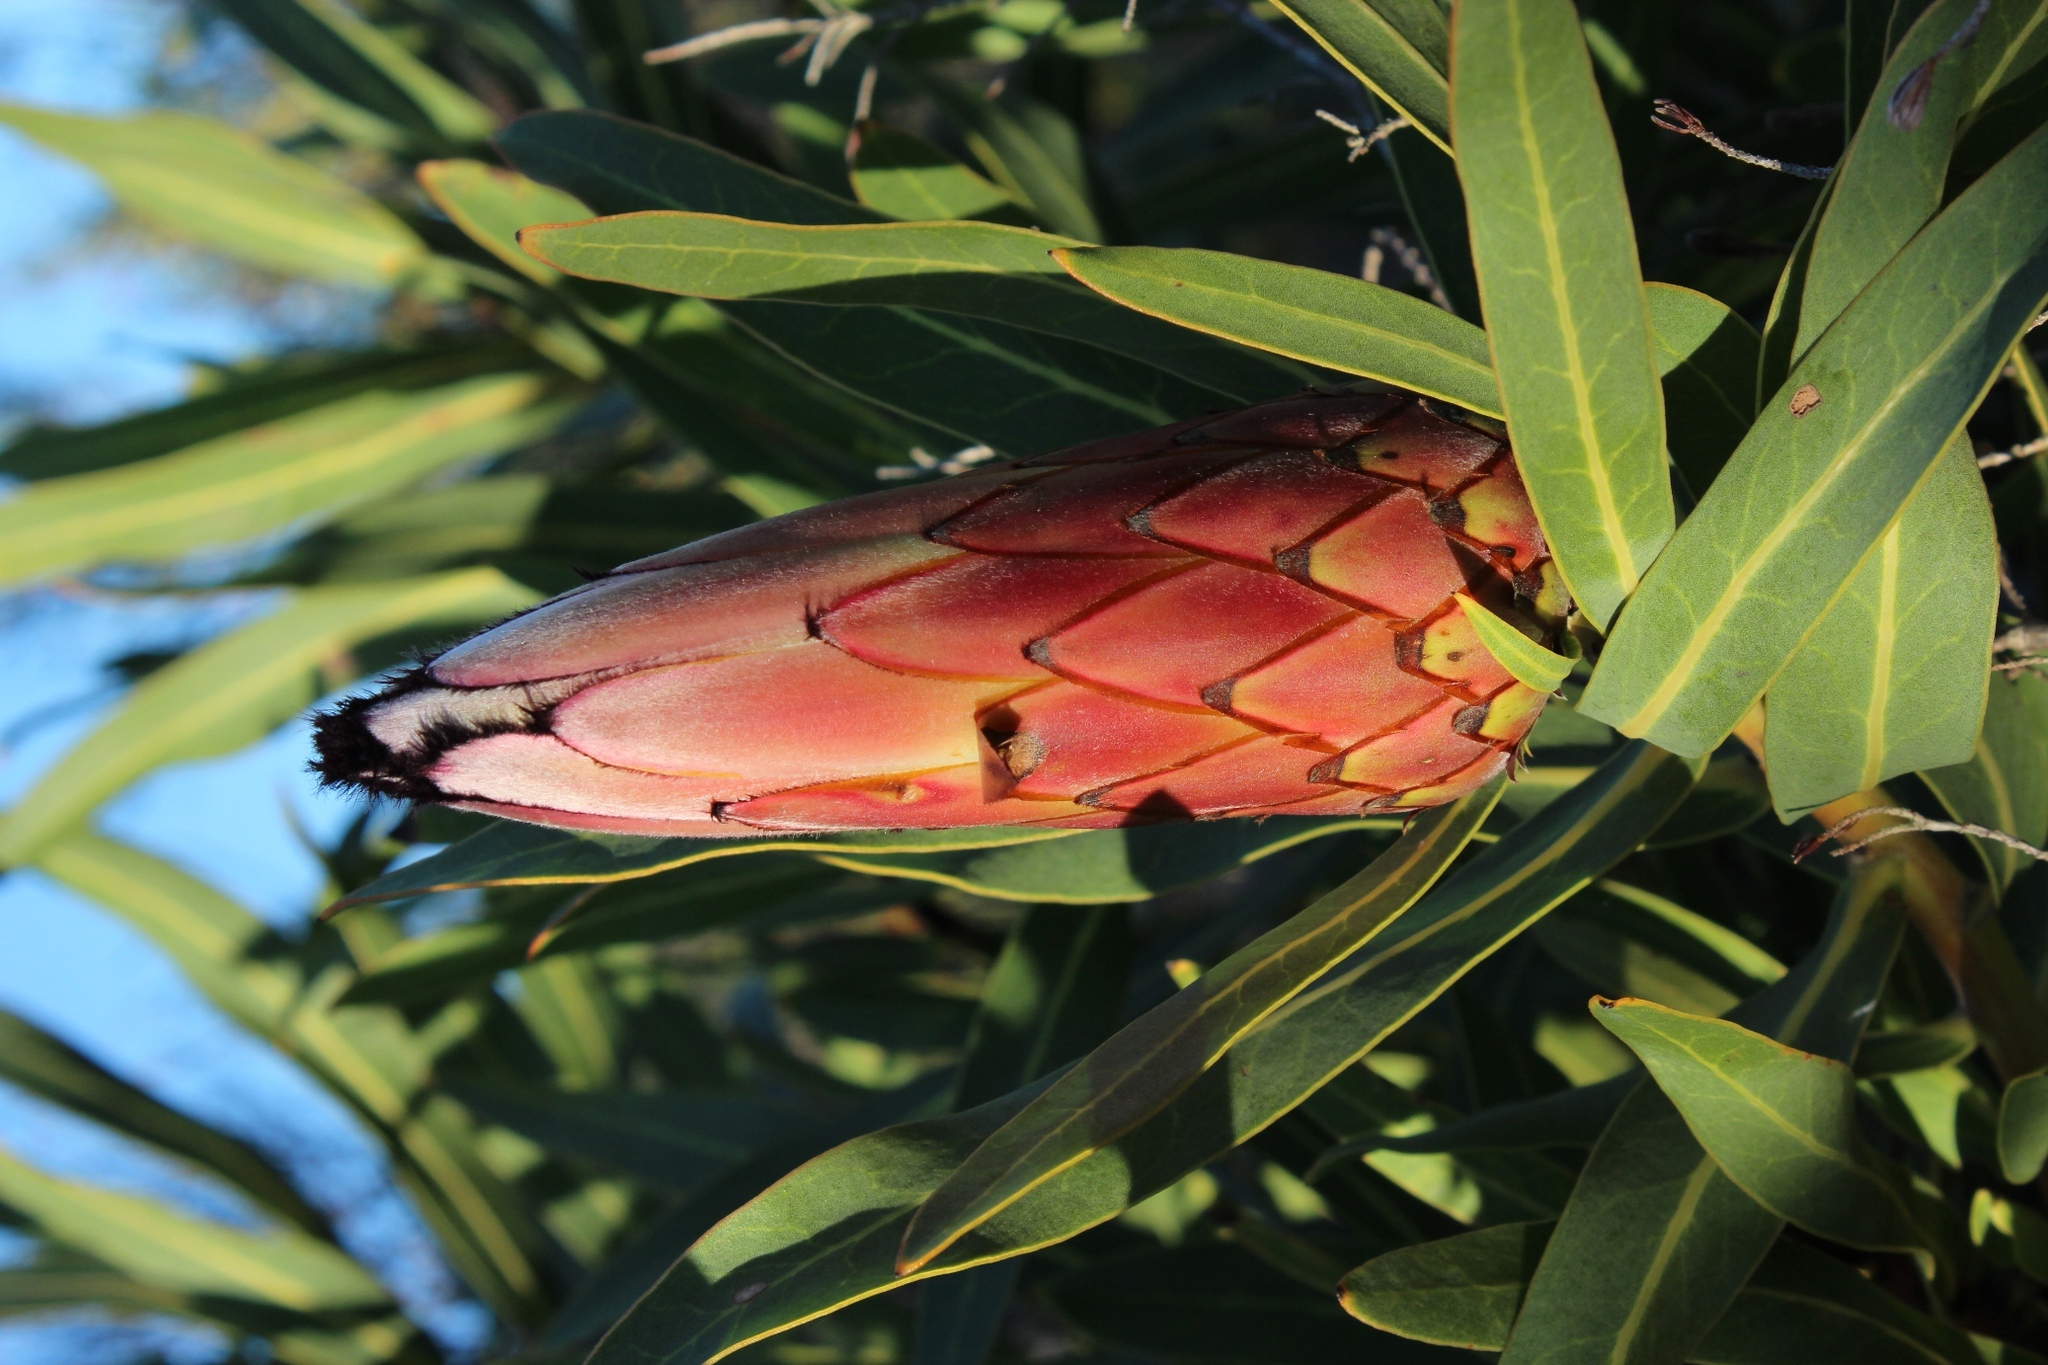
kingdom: Plantae
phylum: Tracheophyta
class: Magnoliopsida
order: Proteales
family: Proteaceae
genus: Protea
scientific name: Protea neriifolia
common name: Blue sugarbush
